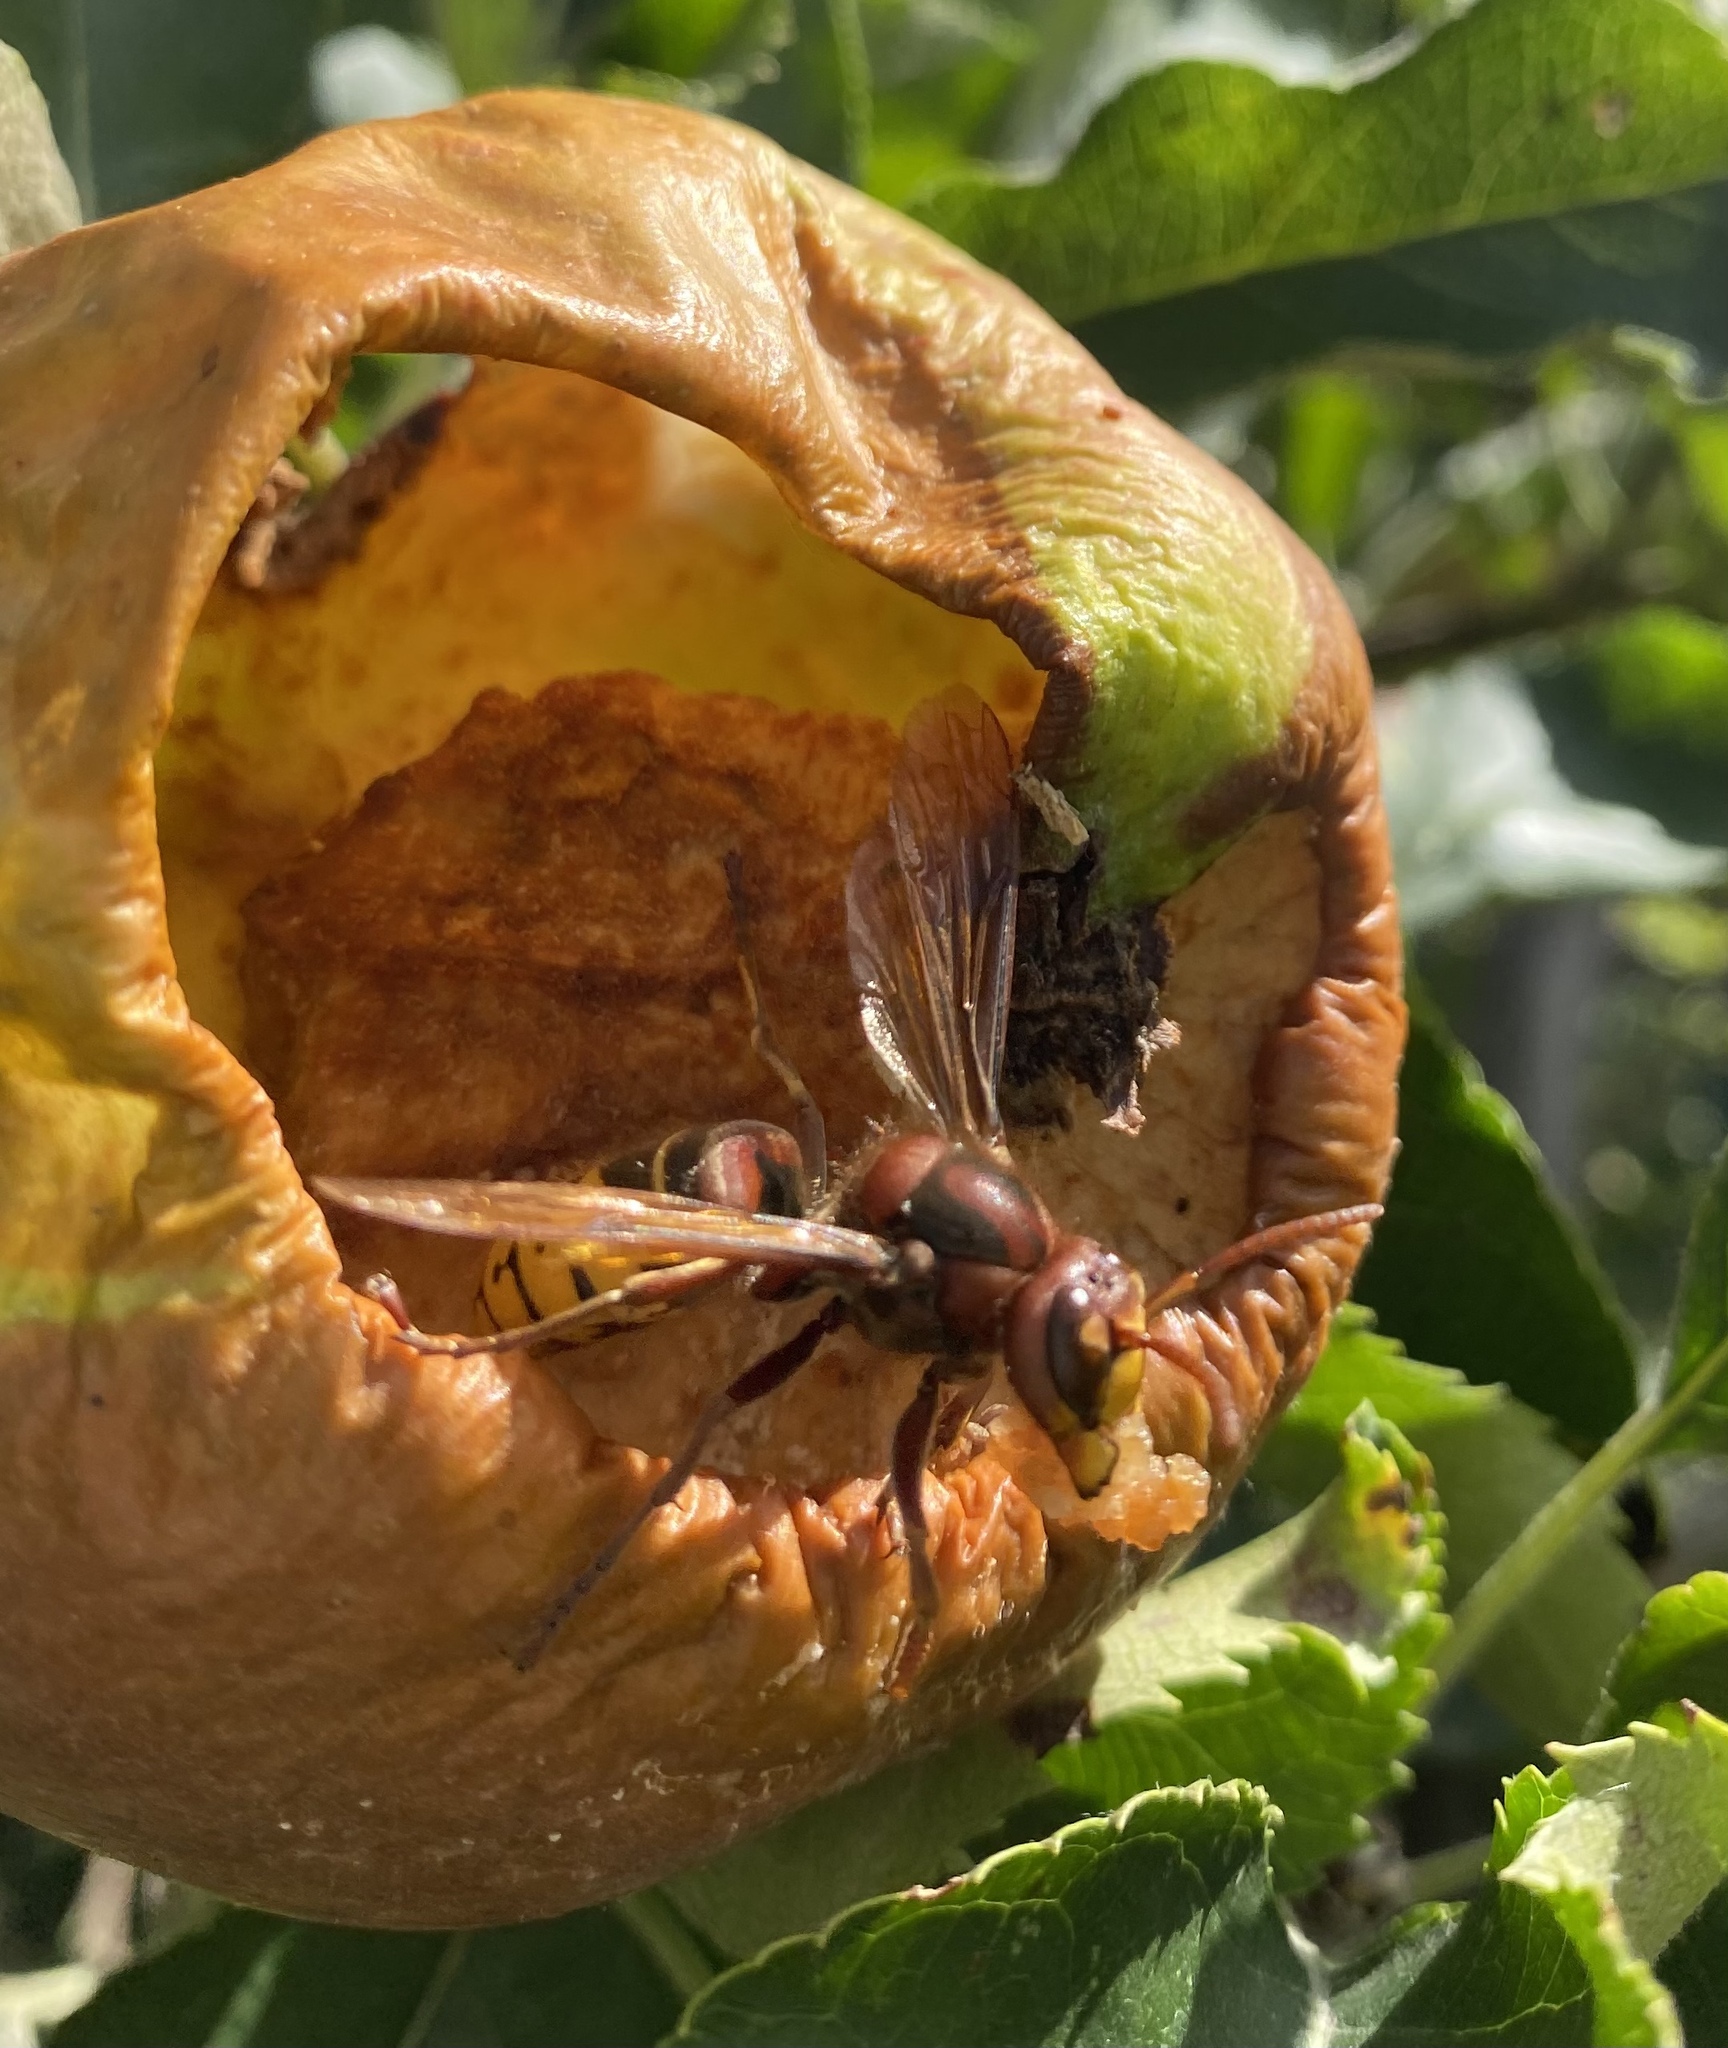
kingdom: Animalia
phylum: Arthropoda
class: Insecta
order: Hymenoptera
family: Vespidae
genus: Vespa
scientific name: Vespa crabro
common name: Hornet
